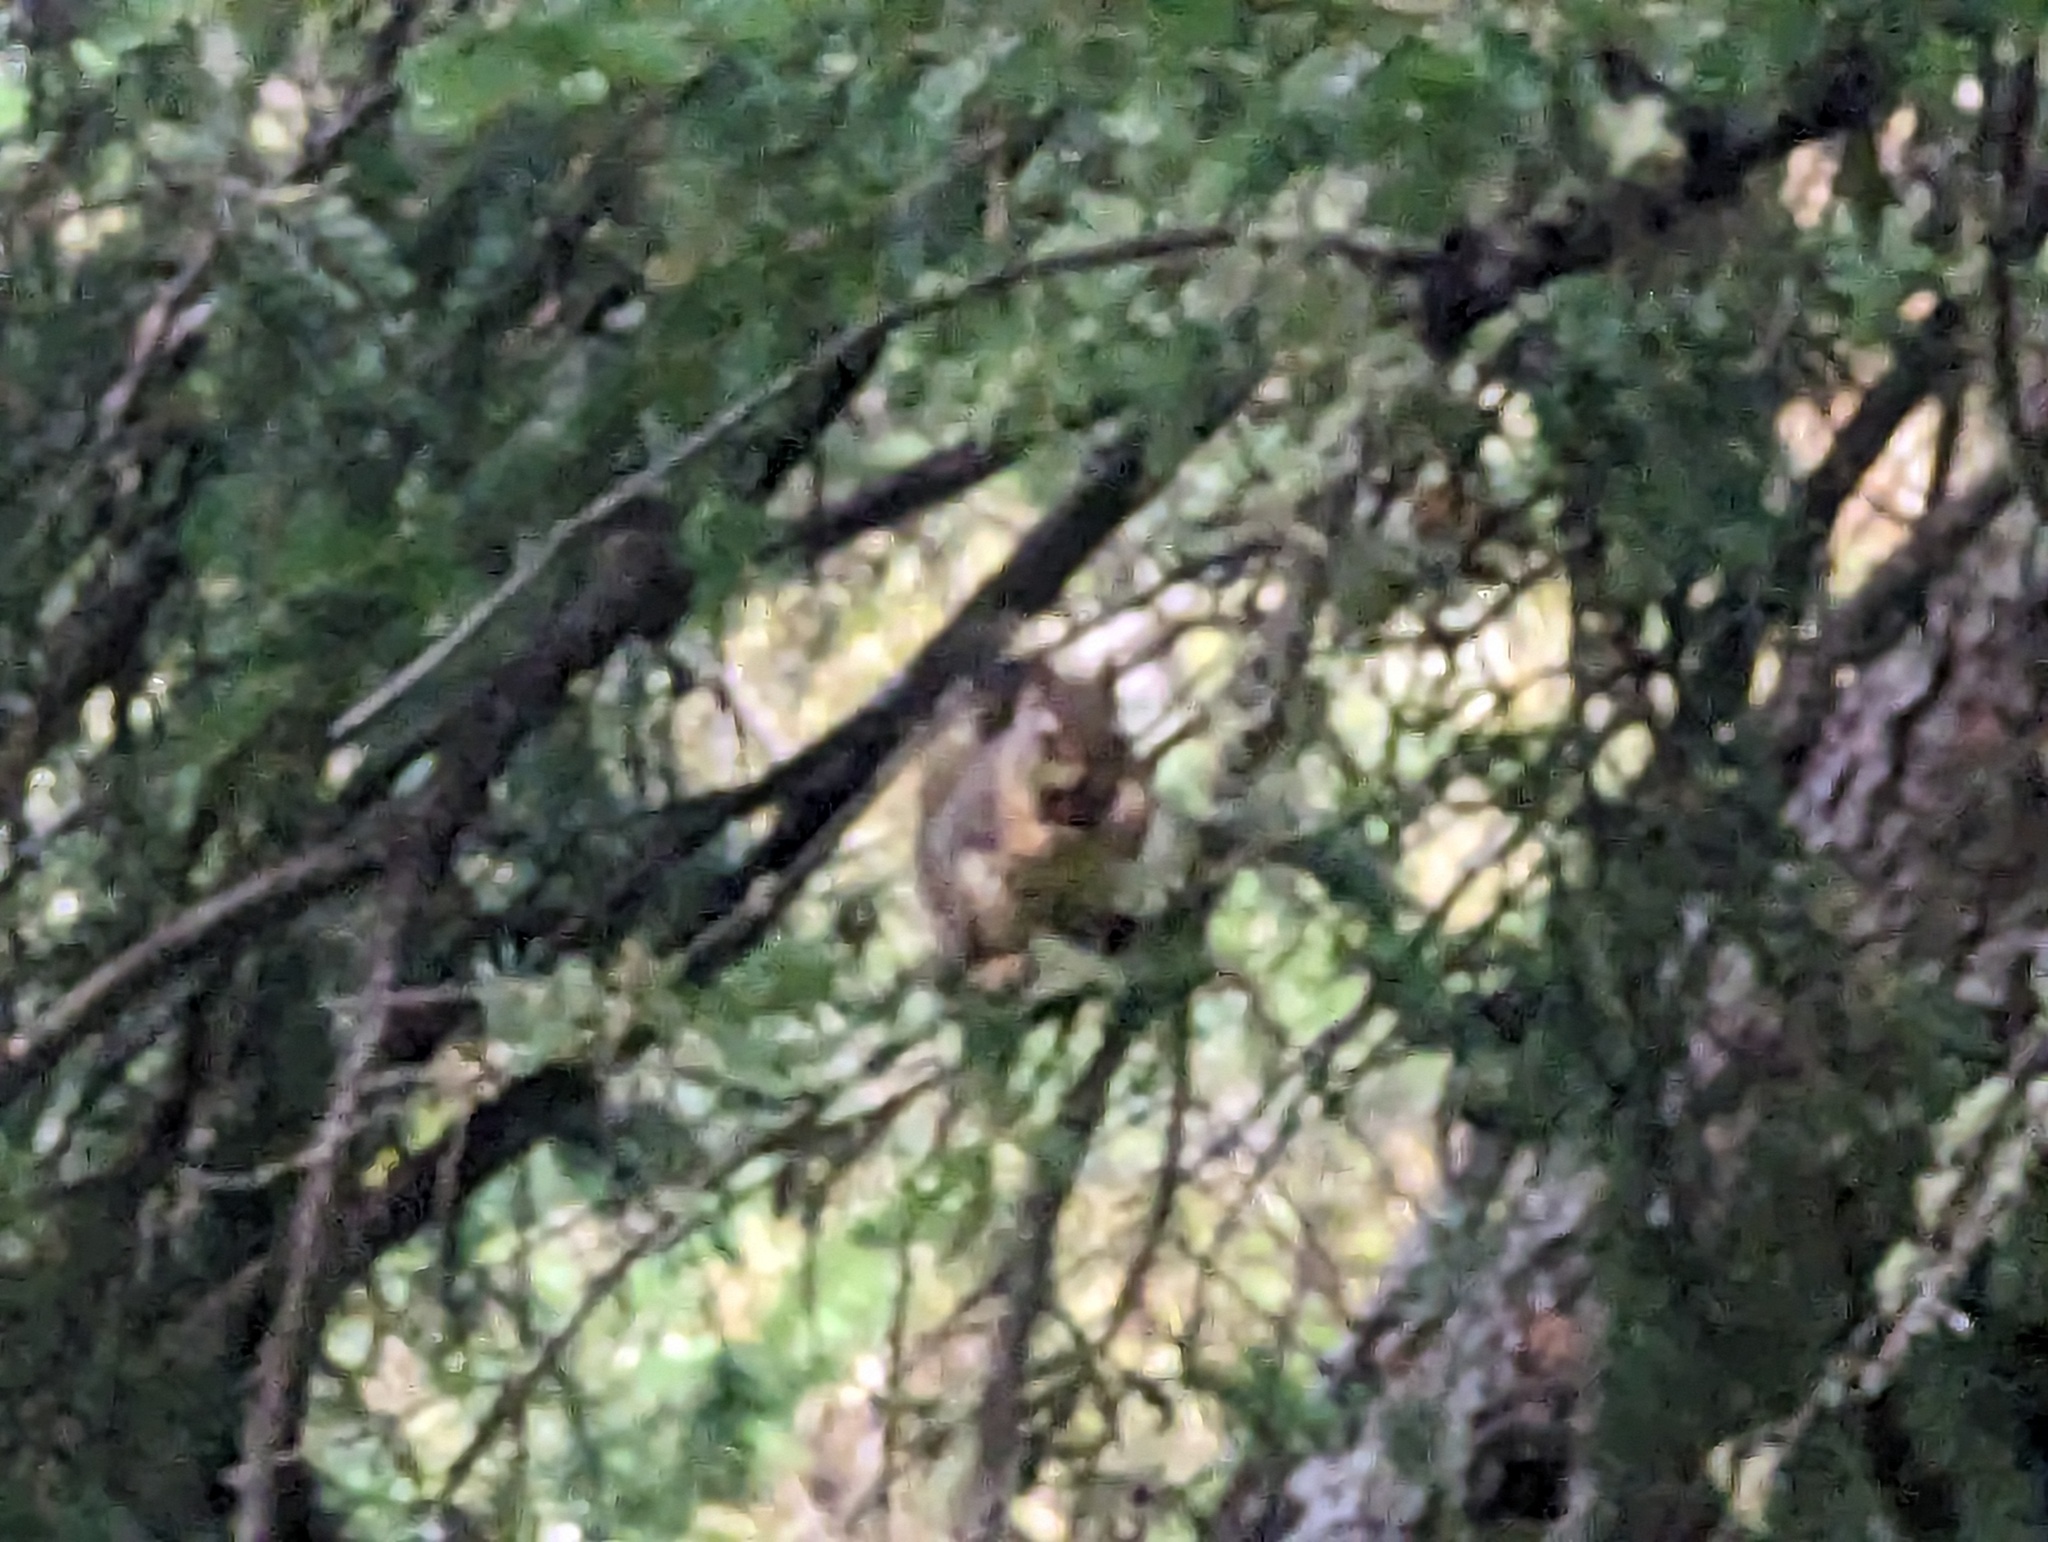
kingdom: Animalia
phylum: Chordata
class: Mammalia
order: Rodentia
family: Sciuridae
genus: Tamiasciurus
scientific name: Tamiasciurus hudsonicus
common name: Red squirrel
